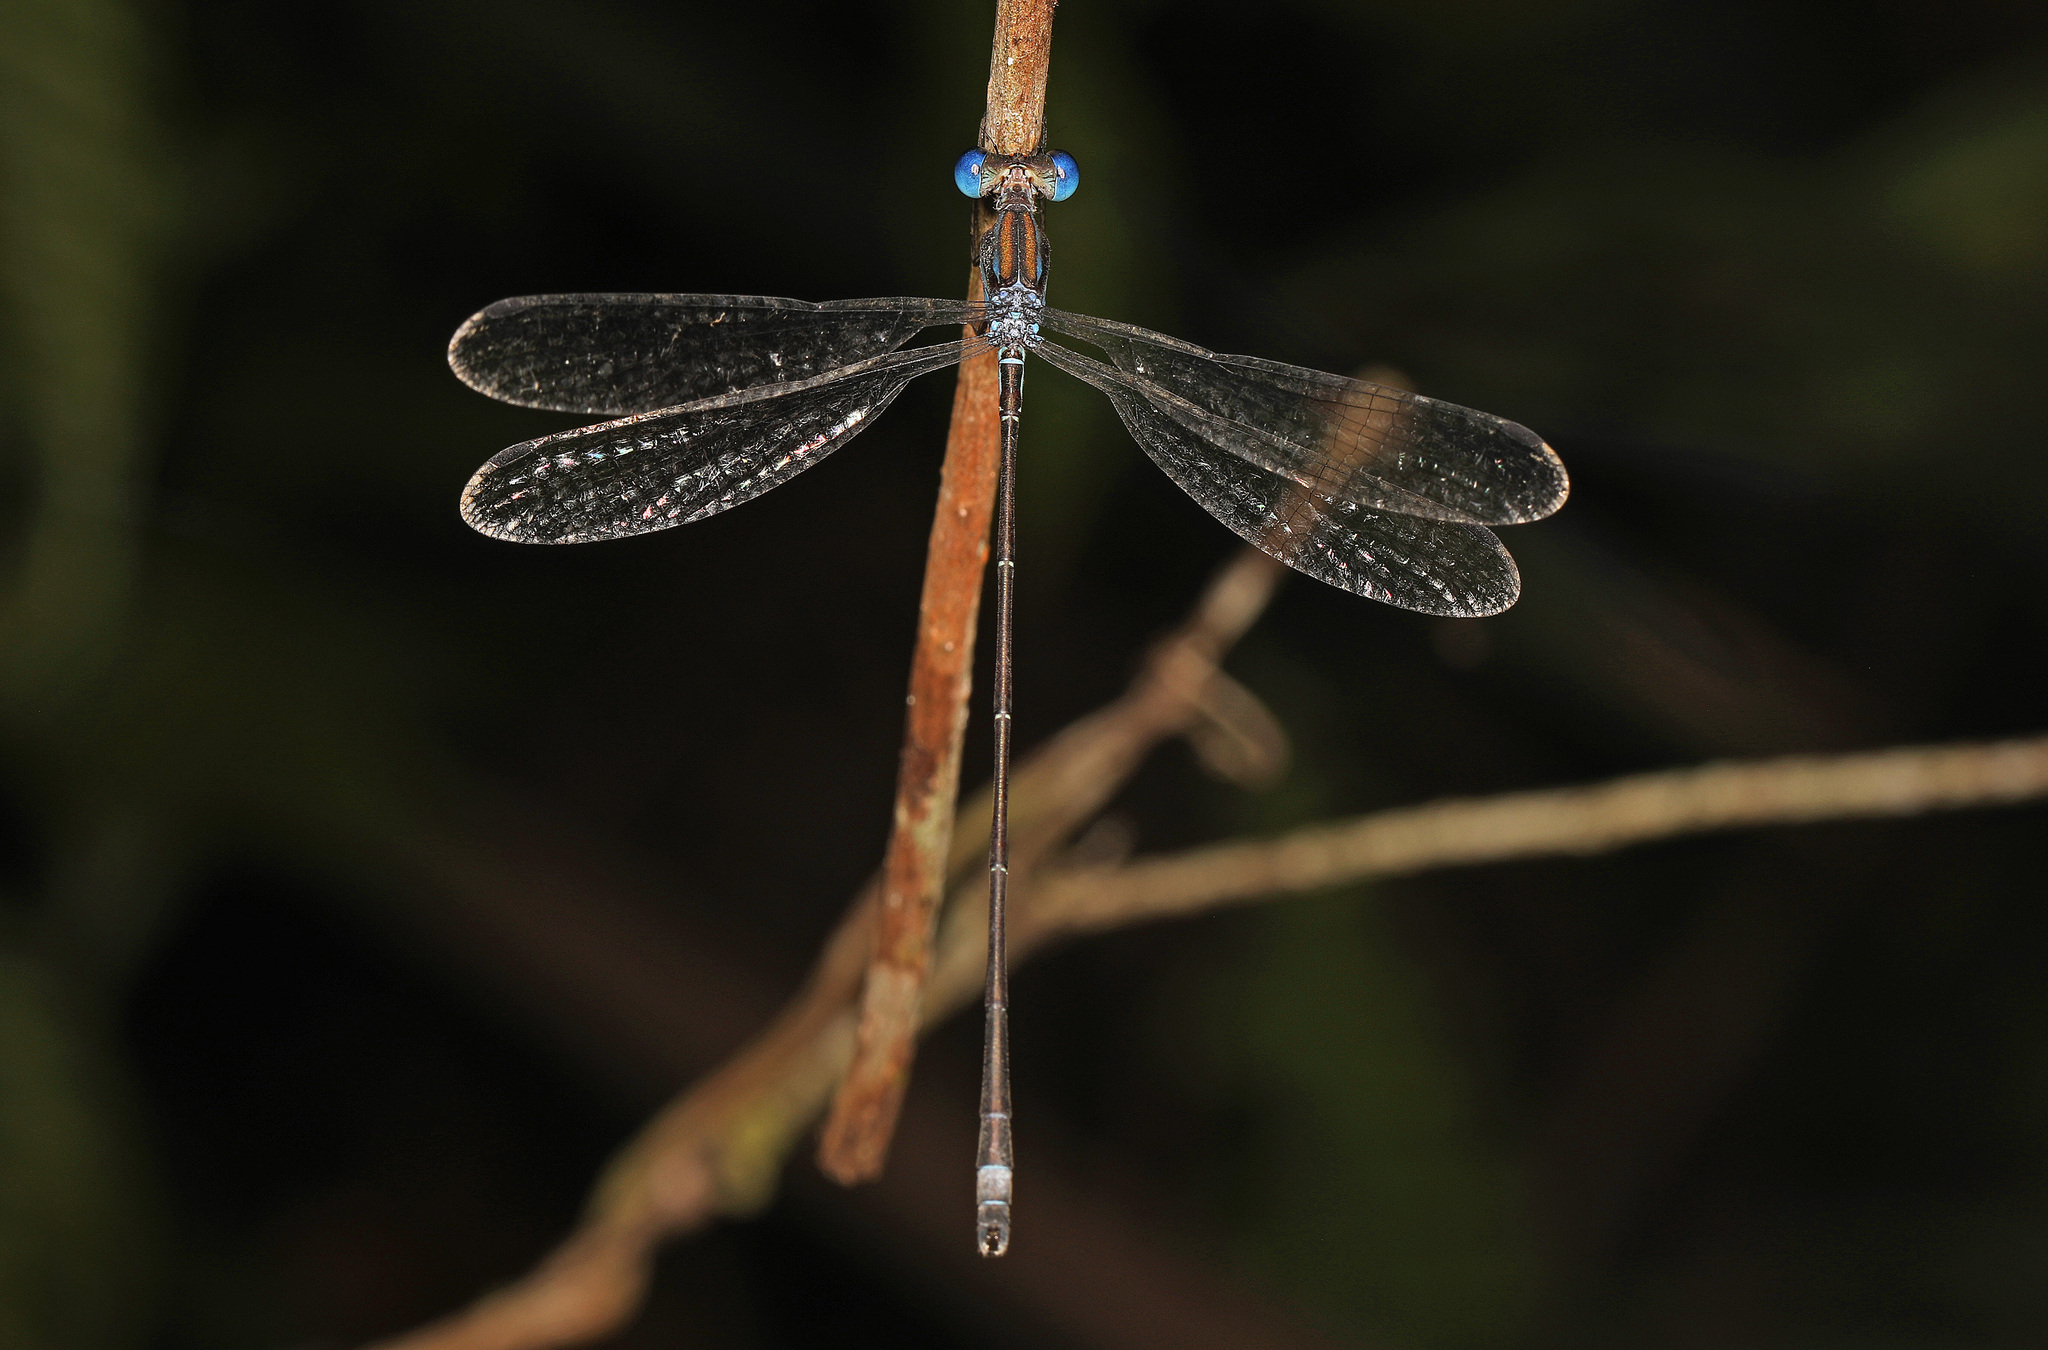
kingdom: Animalia
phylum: Arthropoda
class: Insecta
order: Odonata
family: Lestidae
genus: Lestes
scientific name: Lestes tenuatus
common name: Blue-striped spreadwing
